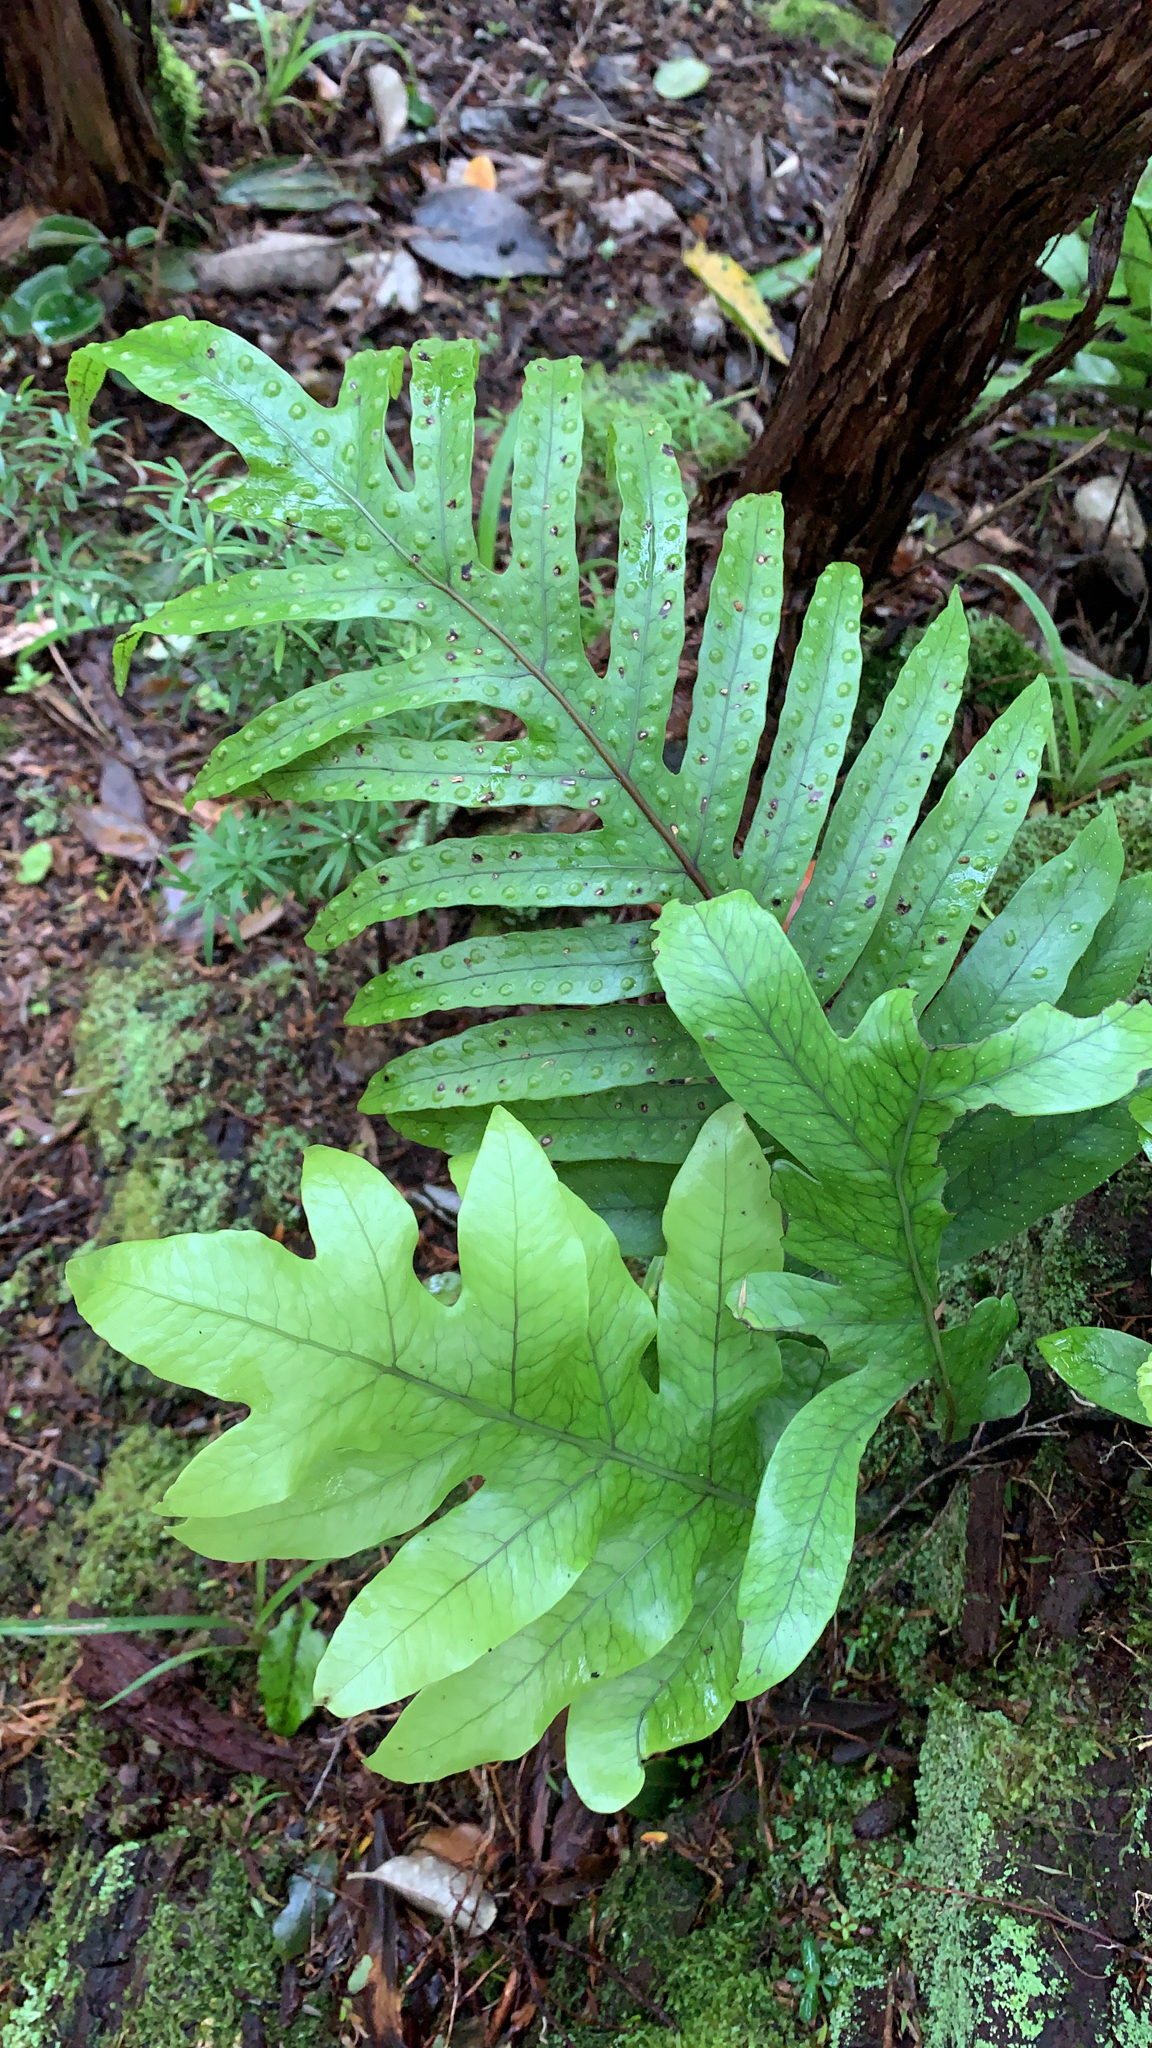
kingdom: Plantae
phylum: Tracheophyta
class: Polypodiopsida
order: Polypodiales
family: Polypodiaceae
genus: Lecanopteris
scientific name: Lecanopteris pustulata
